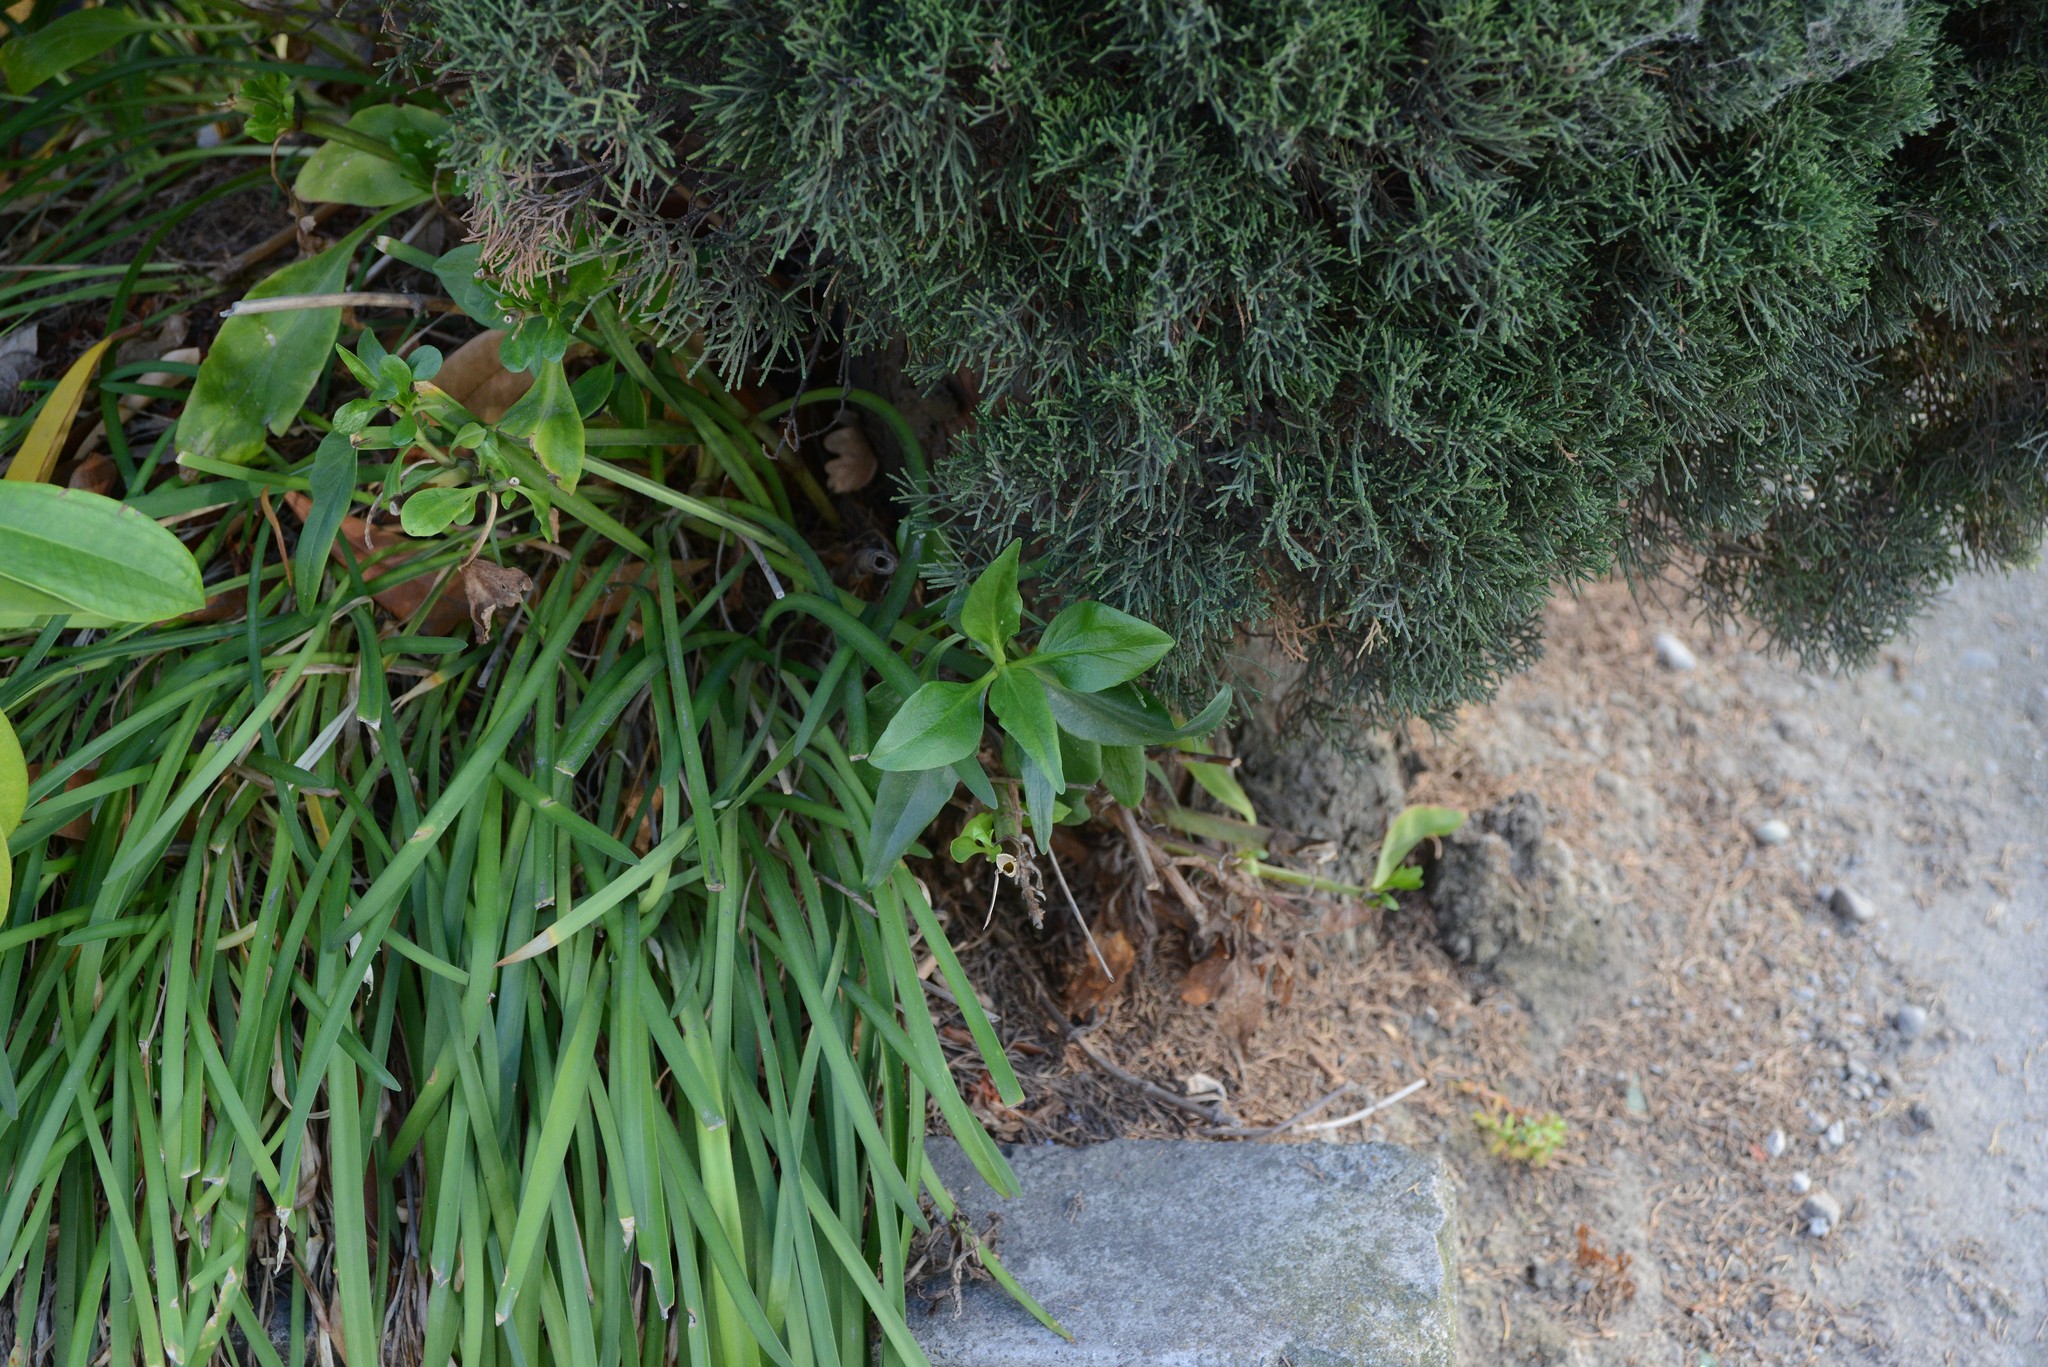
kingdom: Plantae
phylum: Tracheophyta
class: Magnoliopsida
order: Dipsacales
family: Caprifoliaceae
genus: Centranthus
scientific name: Centranthus ruber
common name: Red valerian
